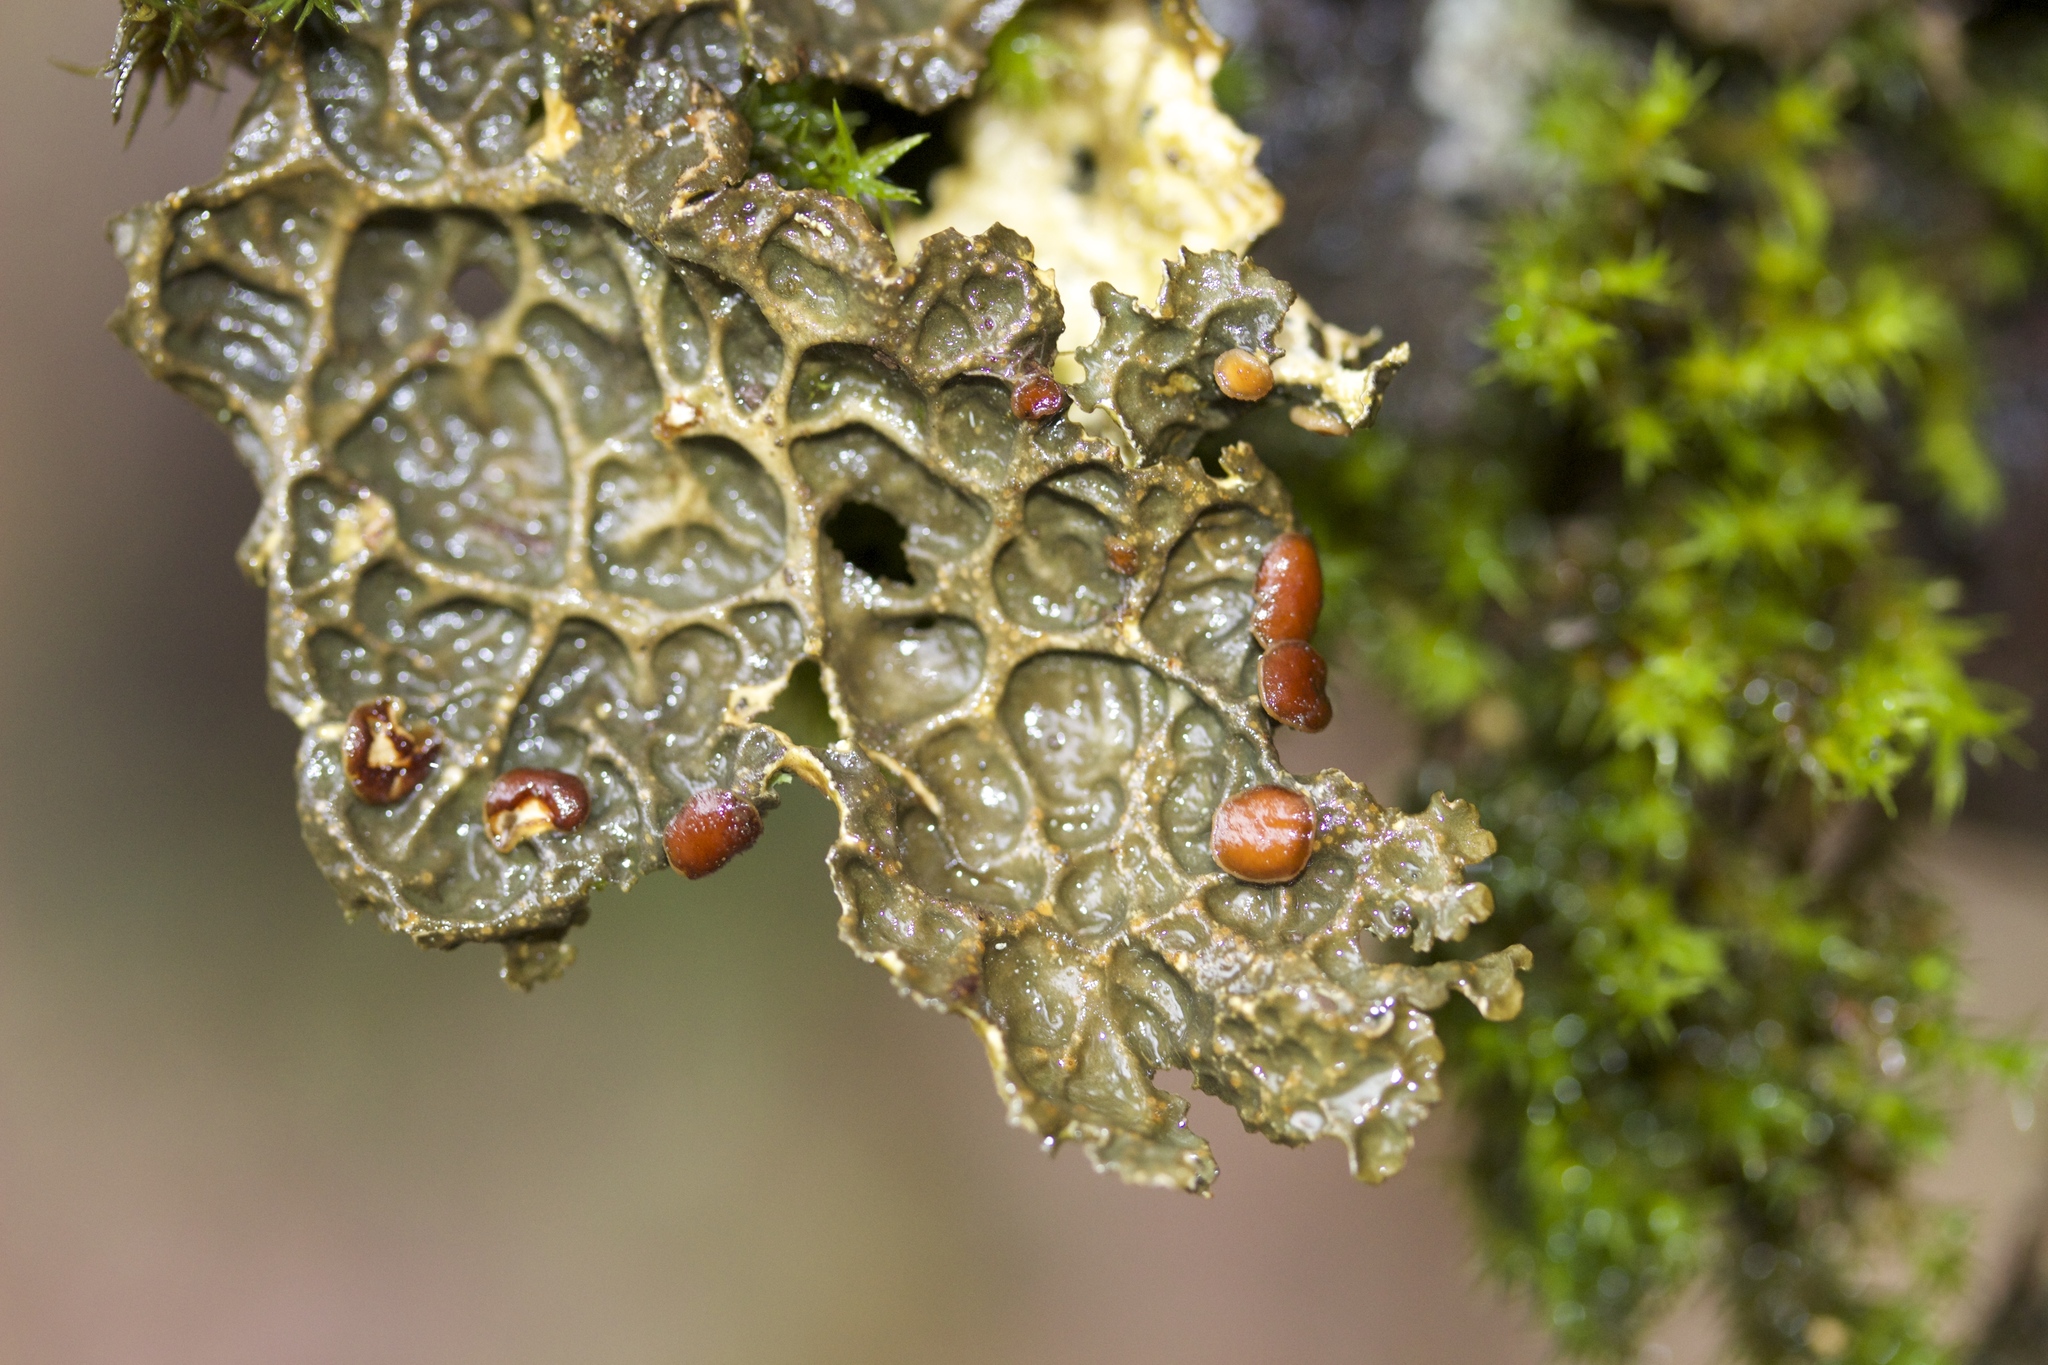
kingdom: Fungi
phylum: Ascomycota
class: Lecanoromycetes
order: Peltigerales
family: Lobariaceae
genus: Lobaria
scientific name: Lobaria anthraspis
